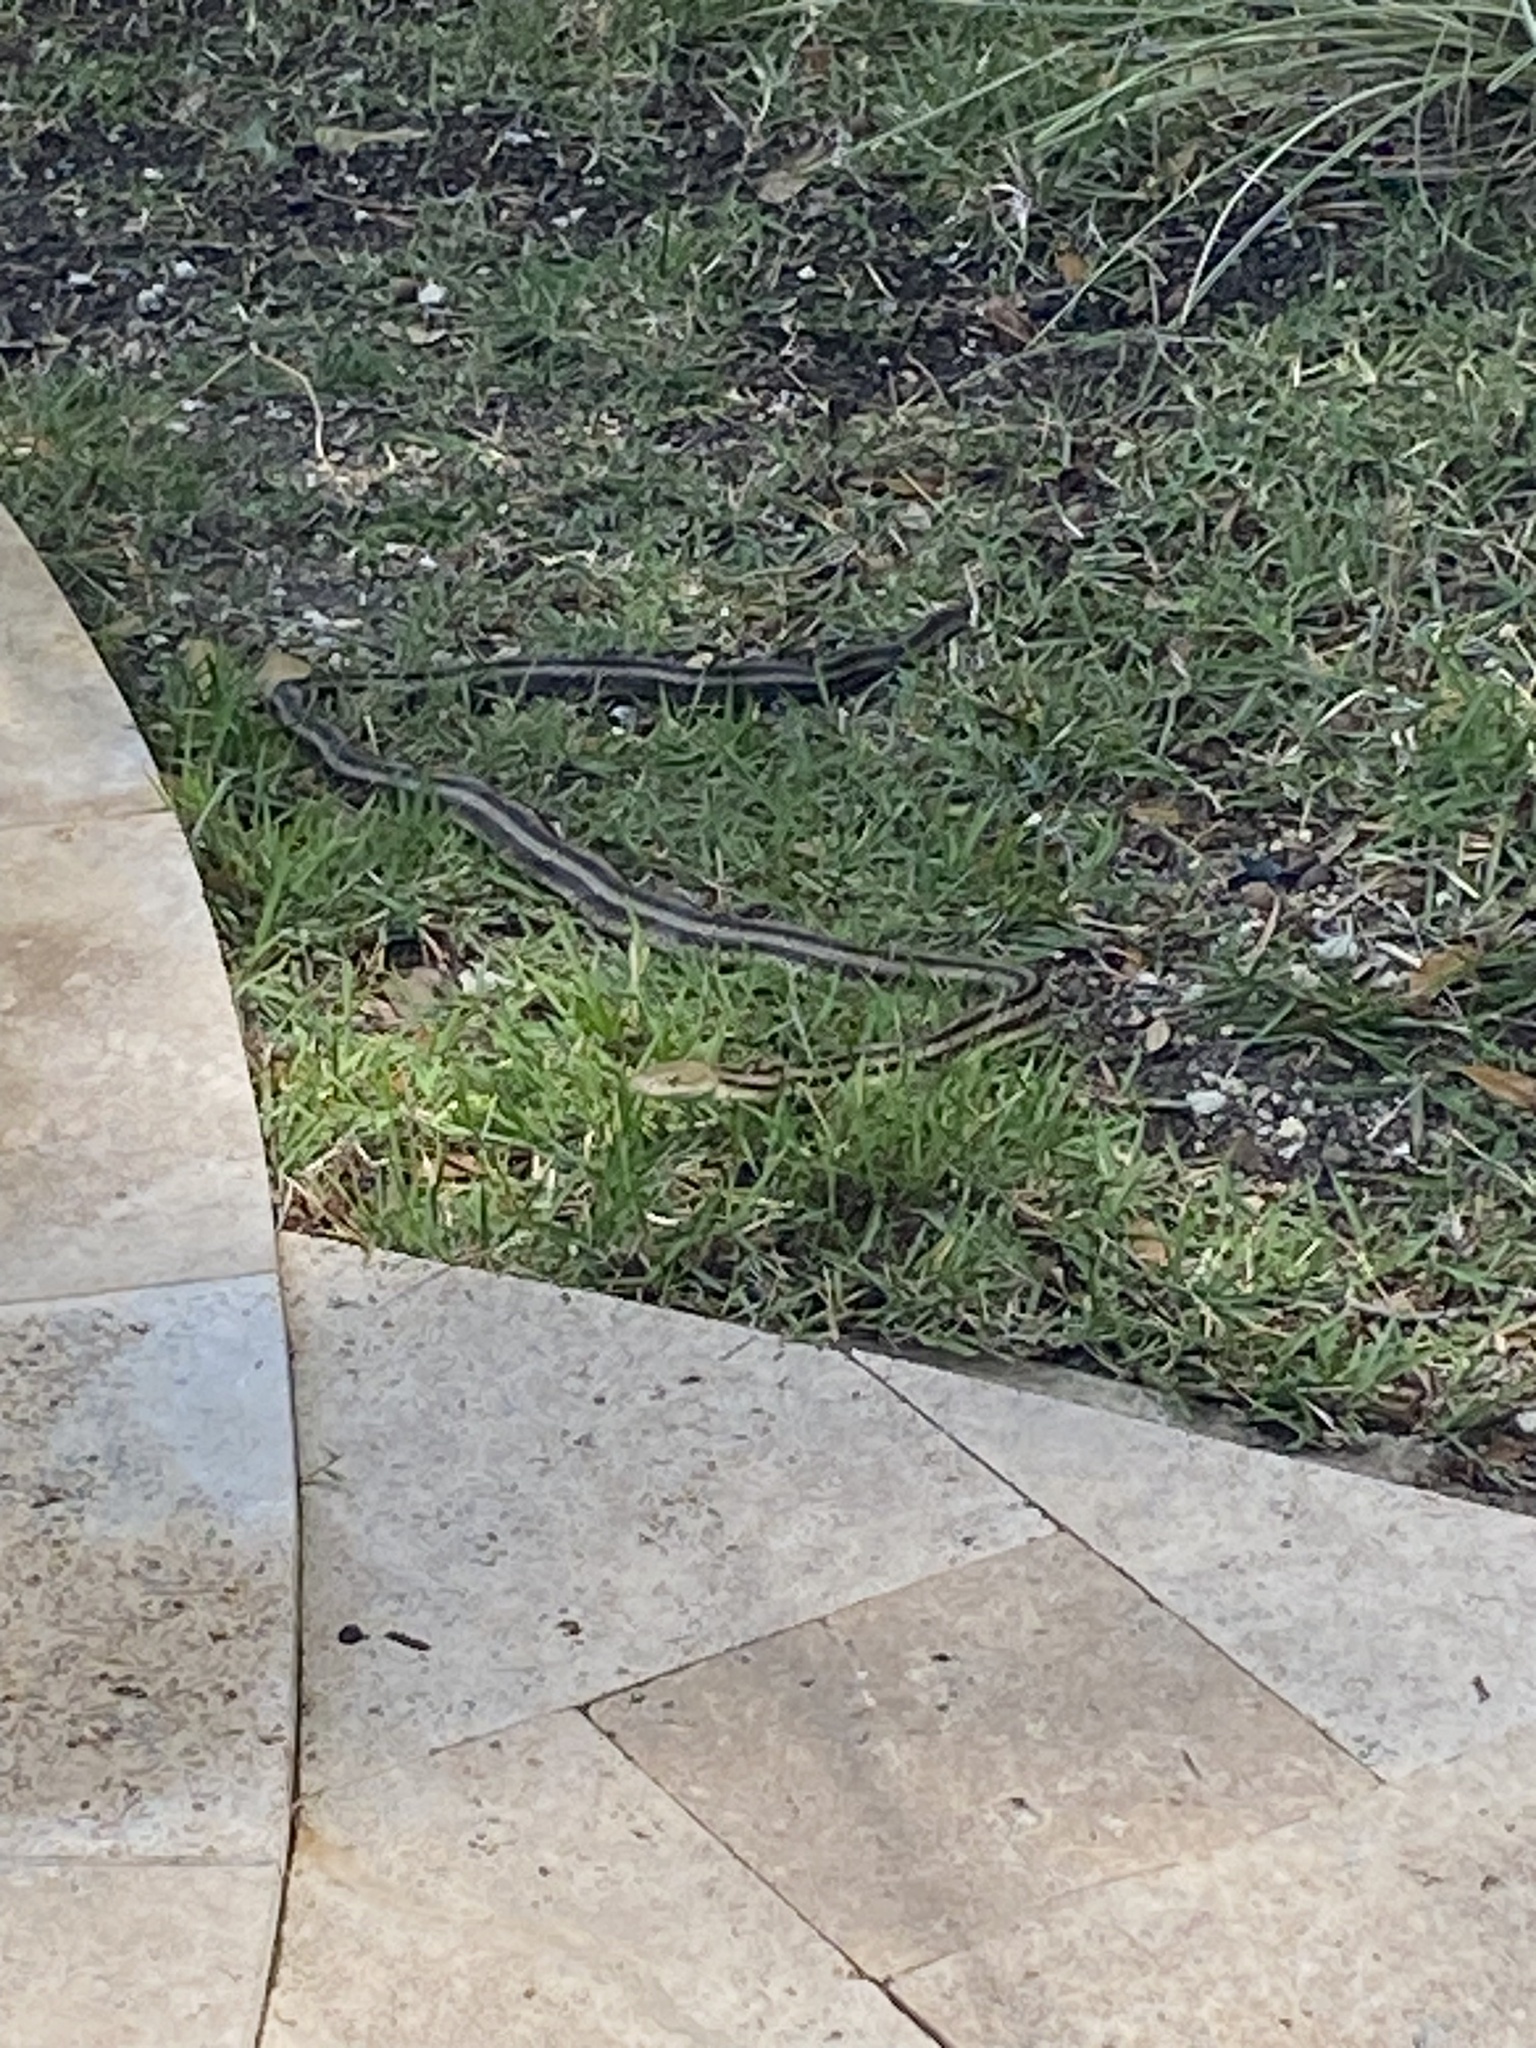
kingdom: Animalia
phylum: Chordata
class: Squamata
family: Colubridae
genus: Pantherophis
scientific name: Pantherophis alleghaniensis
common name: Eastern rat snake
